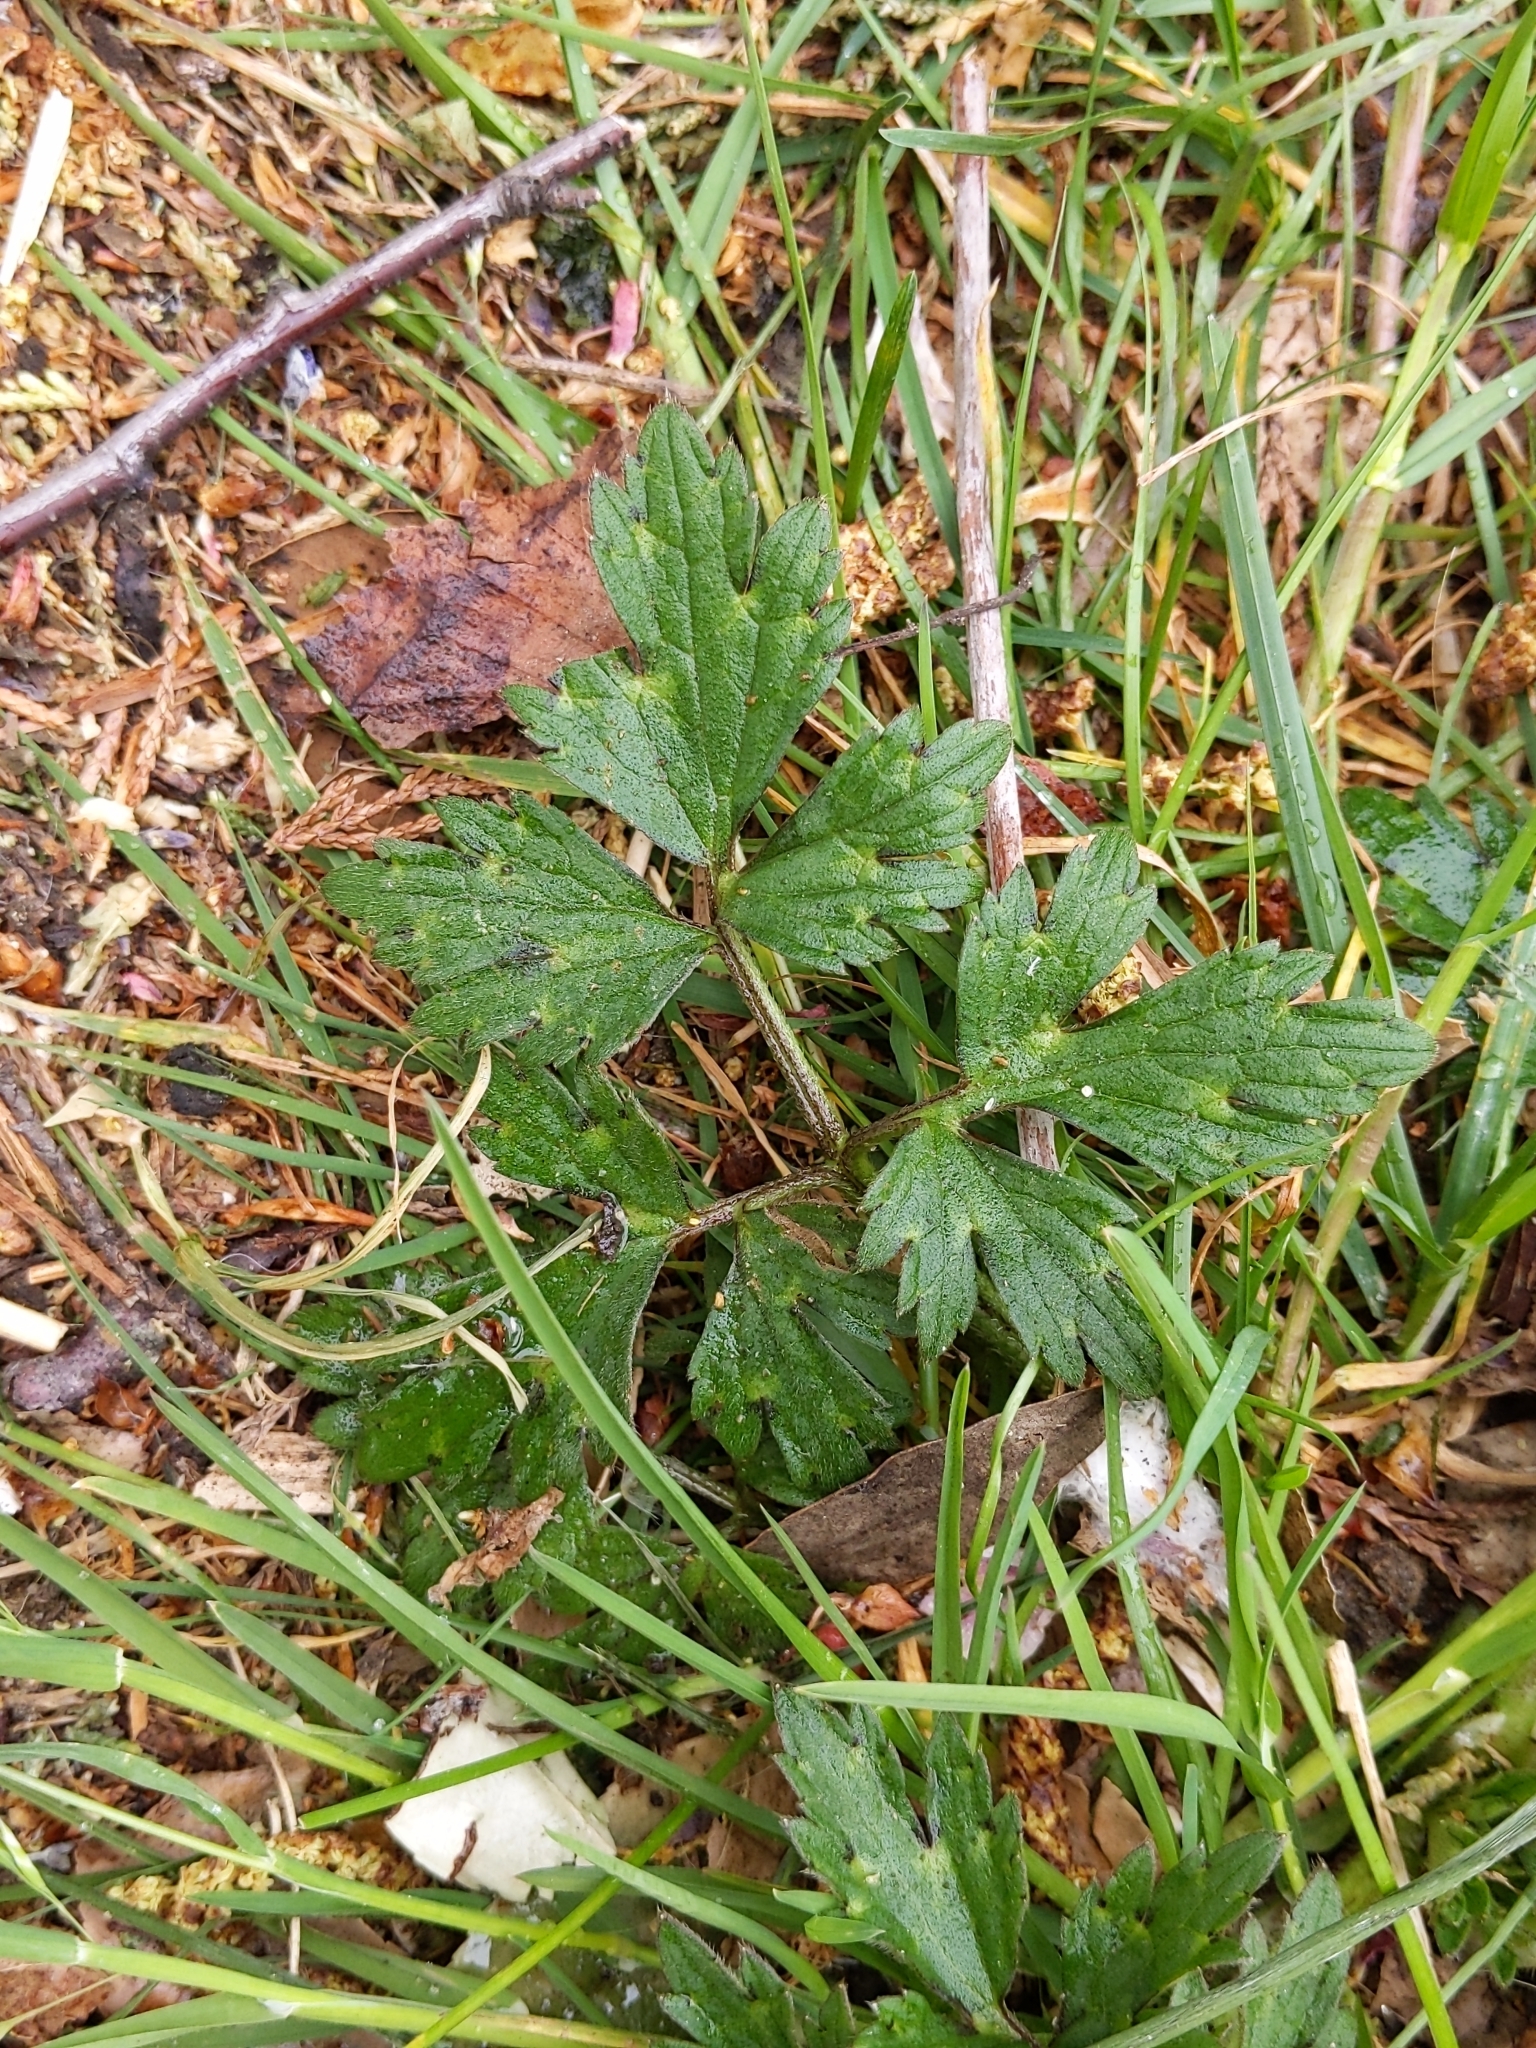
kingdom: Plantae
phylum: Tracheophyta
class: Magnoliopsida
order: Ranunculales
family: Ranunculaceae
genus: Ranunculus
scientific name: Ranunculus repens
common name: Creeping buttercup
